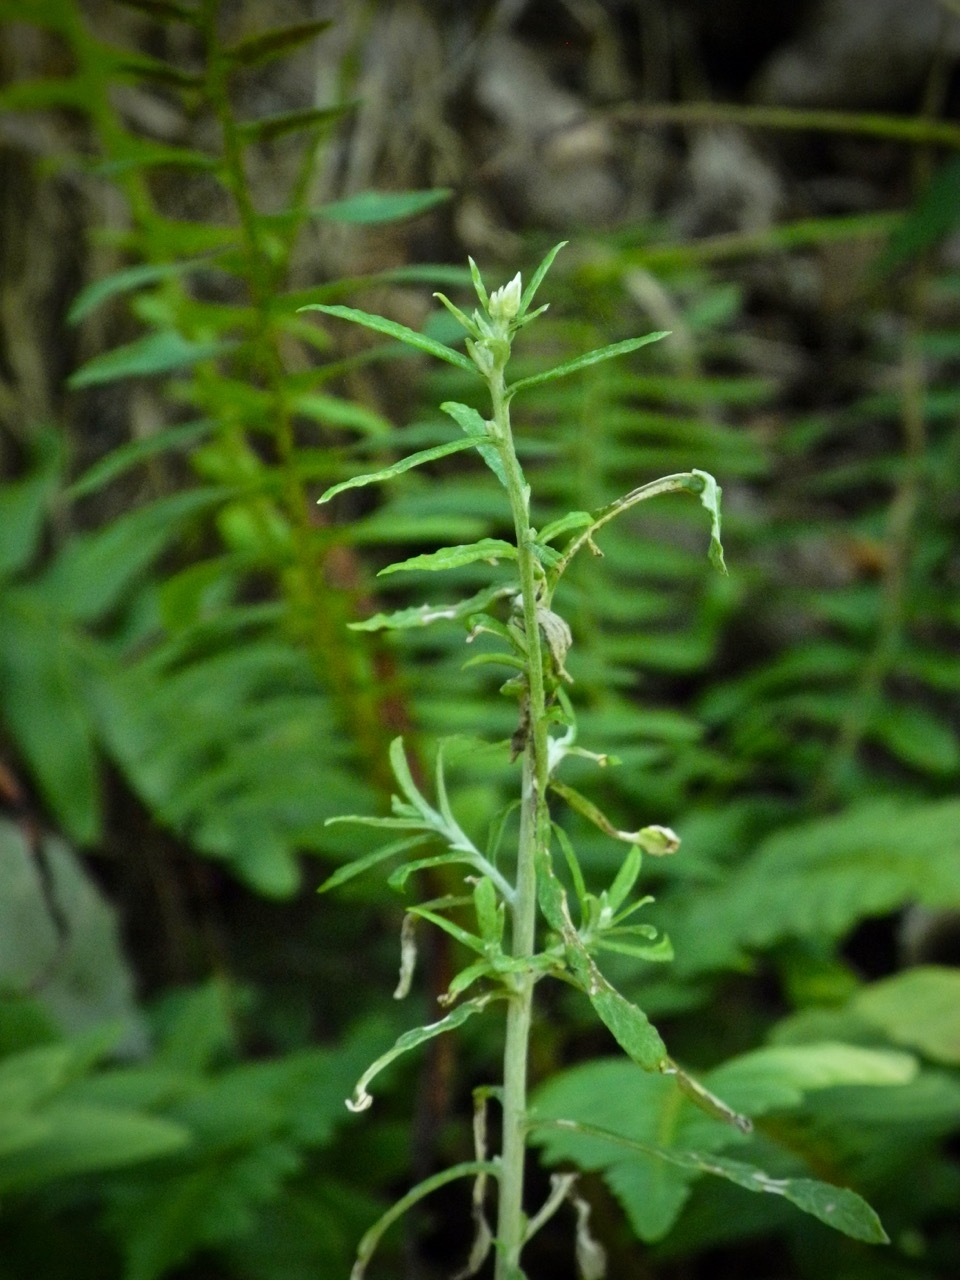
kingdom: Plantae
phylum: Tracheophyta
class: Magnoliopsida
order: Asterales
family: Asteraceae
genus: Pseudognaphalium
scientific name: Pseudognaphalium obtusifolium
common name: Eastern rabbit-tobacco
